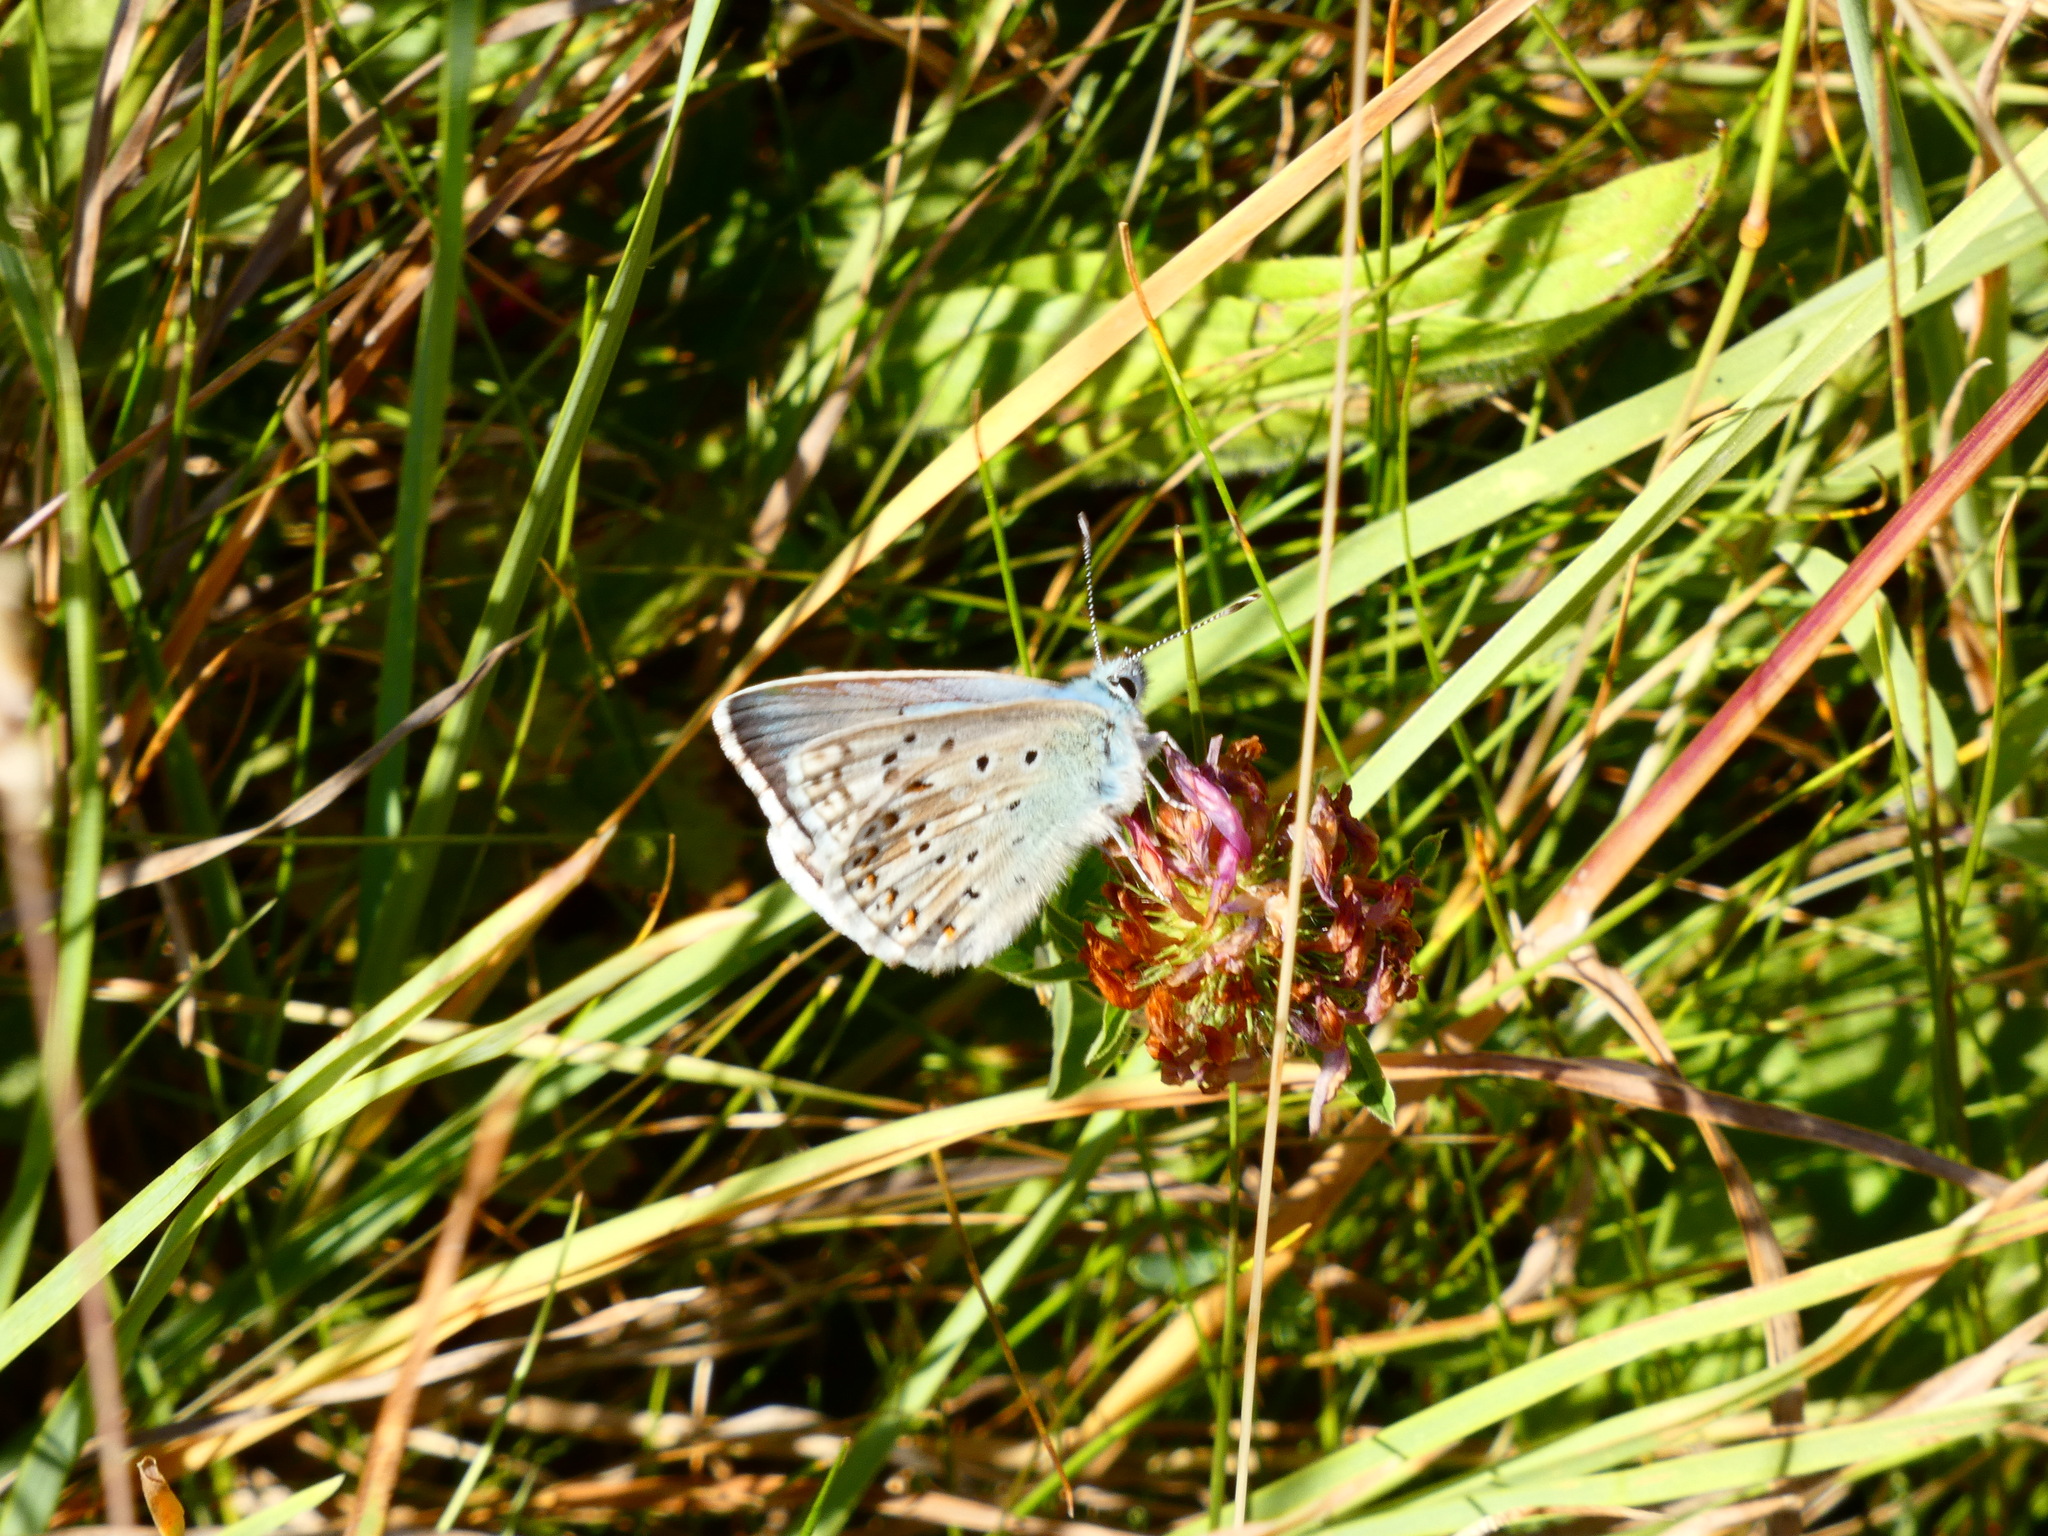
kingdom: Animalia
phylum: Arthropoda
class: Insecta
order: Lepidoptera
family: Lycaenidae
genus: Lysandra
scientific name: Lysandra coridon
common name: Chalkhill blue
